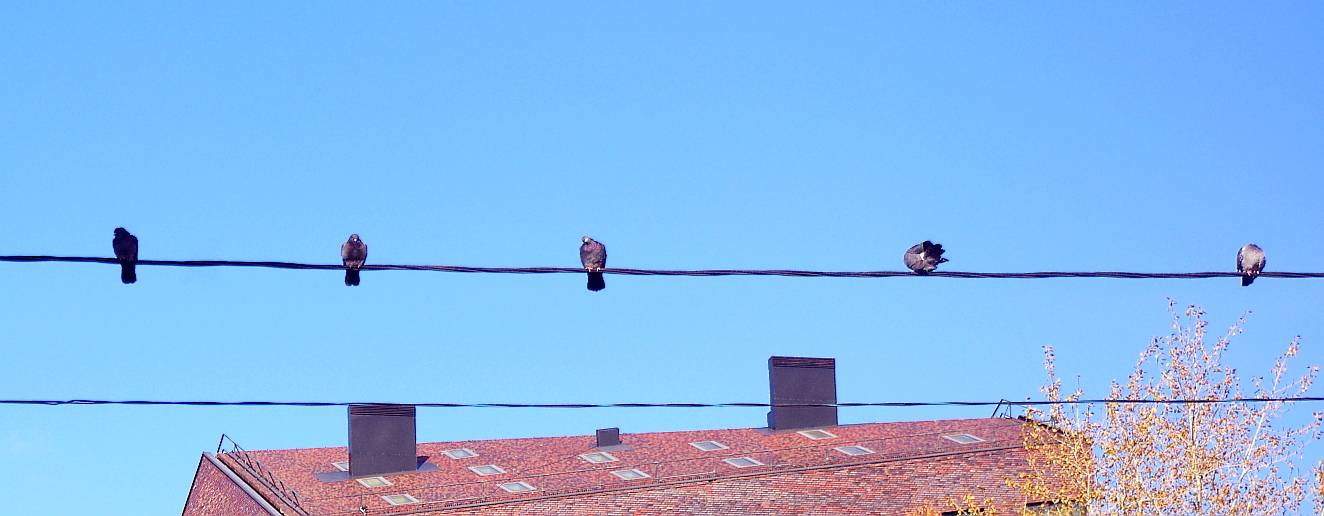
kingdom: Animalia
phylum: Chordata
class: Aves
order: Columbiformes
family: Columbidae
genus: Columba
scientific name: Columba livia
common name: Rock pigeon
